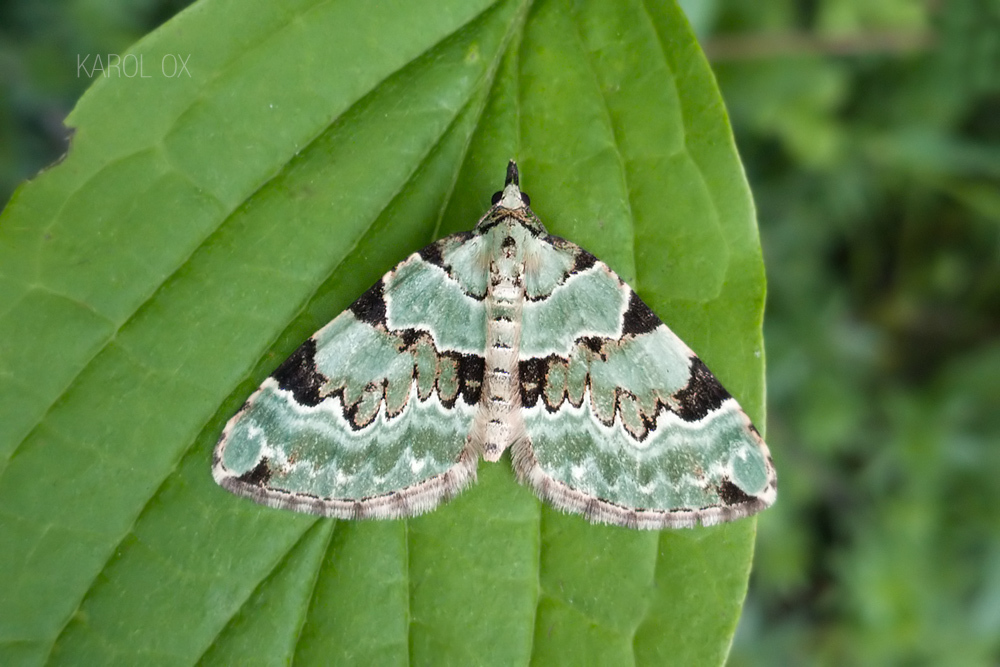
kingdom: Animalia
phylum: Arthropoda
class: Insecta
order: Lepidoptera
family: Geometridae
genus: Colostygia
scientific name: Colostygia pectinataria
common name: Green carpet
